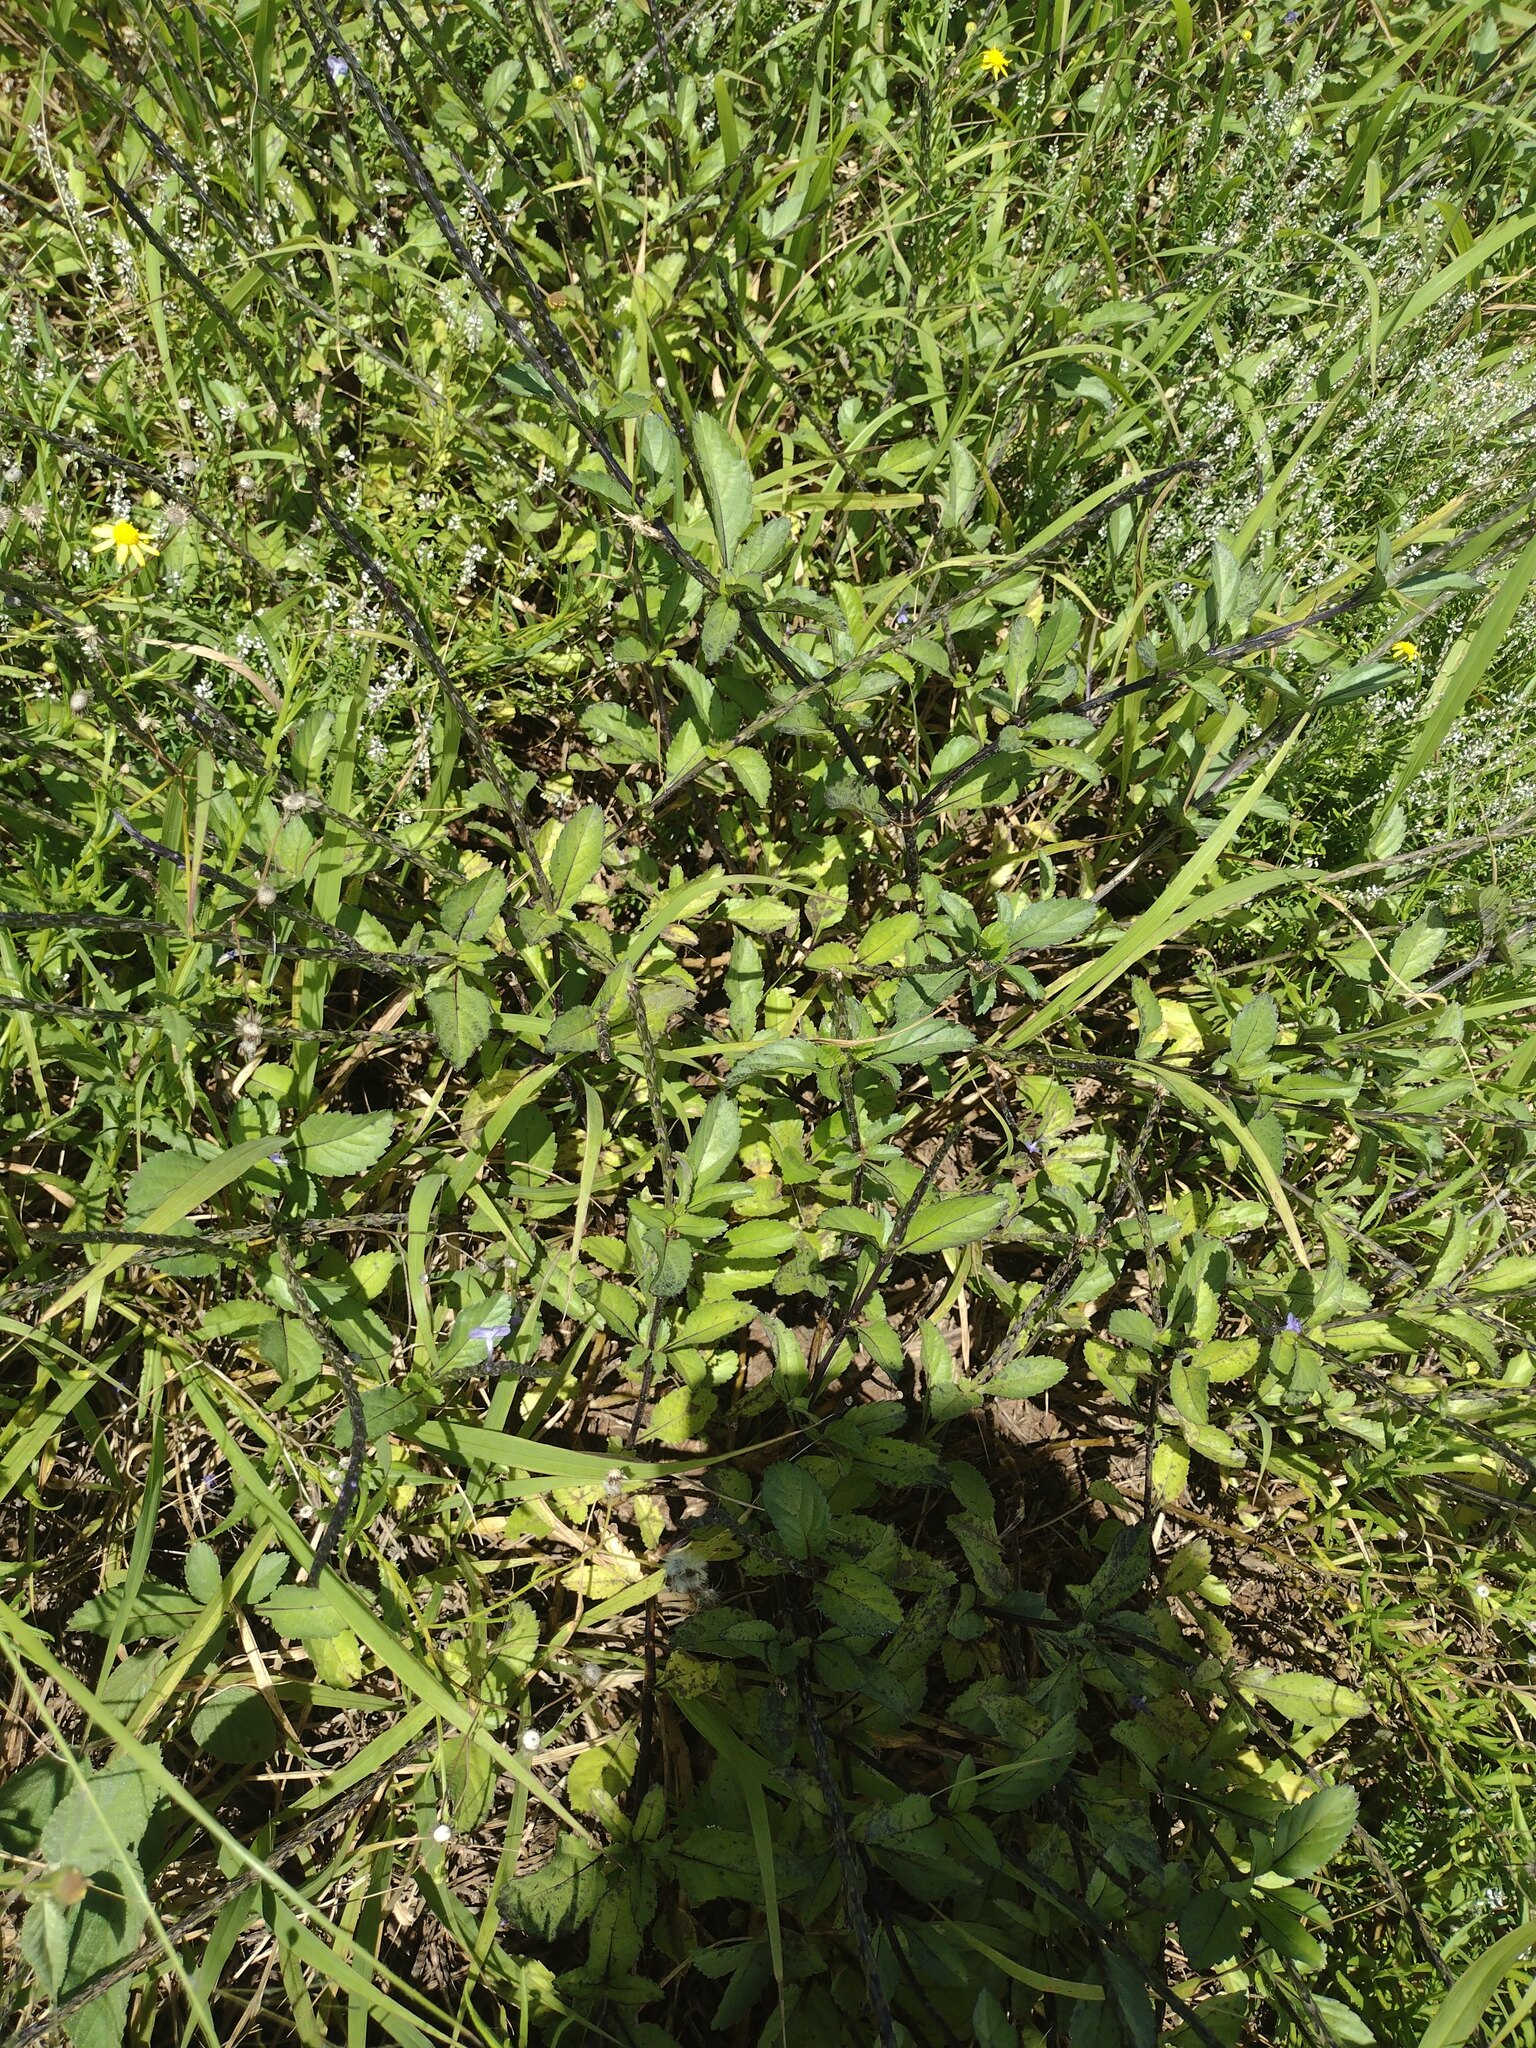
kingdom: Plantae
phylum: Tracheophyta
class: Magnoliopsida
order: Lamiales
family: Verbenaceae
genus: Stachytarpheta
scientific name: Stachytarpheta jamaicensis
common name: Light-blue snakeweed
